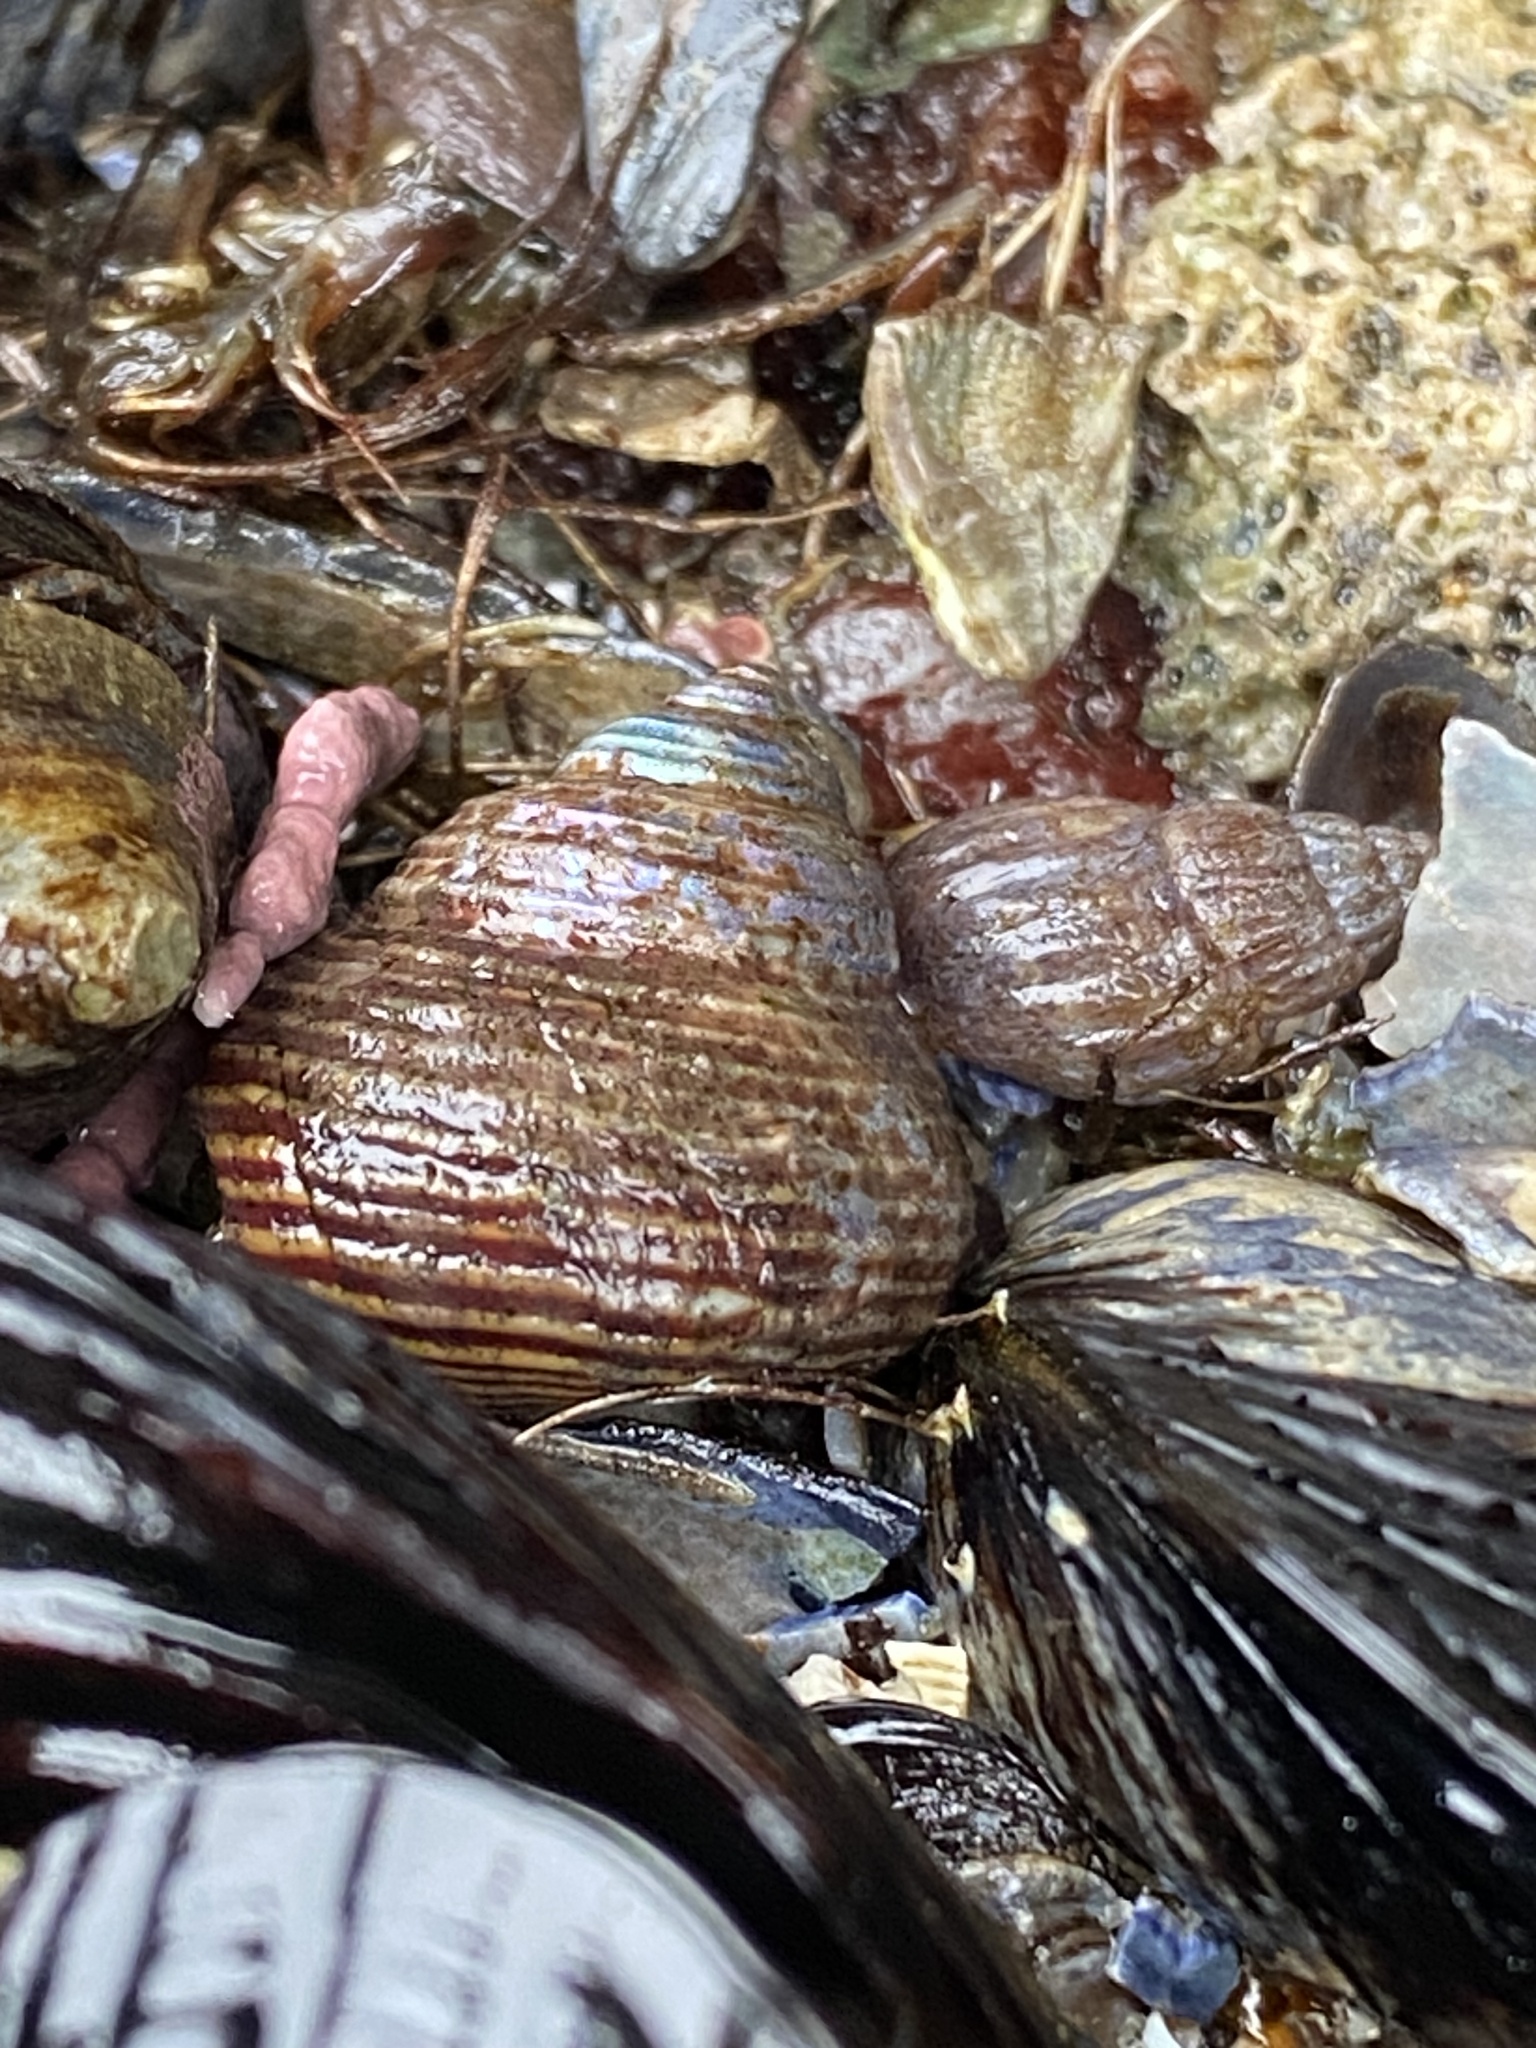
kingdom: Animalia
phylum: Mollusca
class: Gastropoda
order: Trochida
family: Calliostomatidae
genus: Calliostoma
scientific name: Calliostoma ligatum
